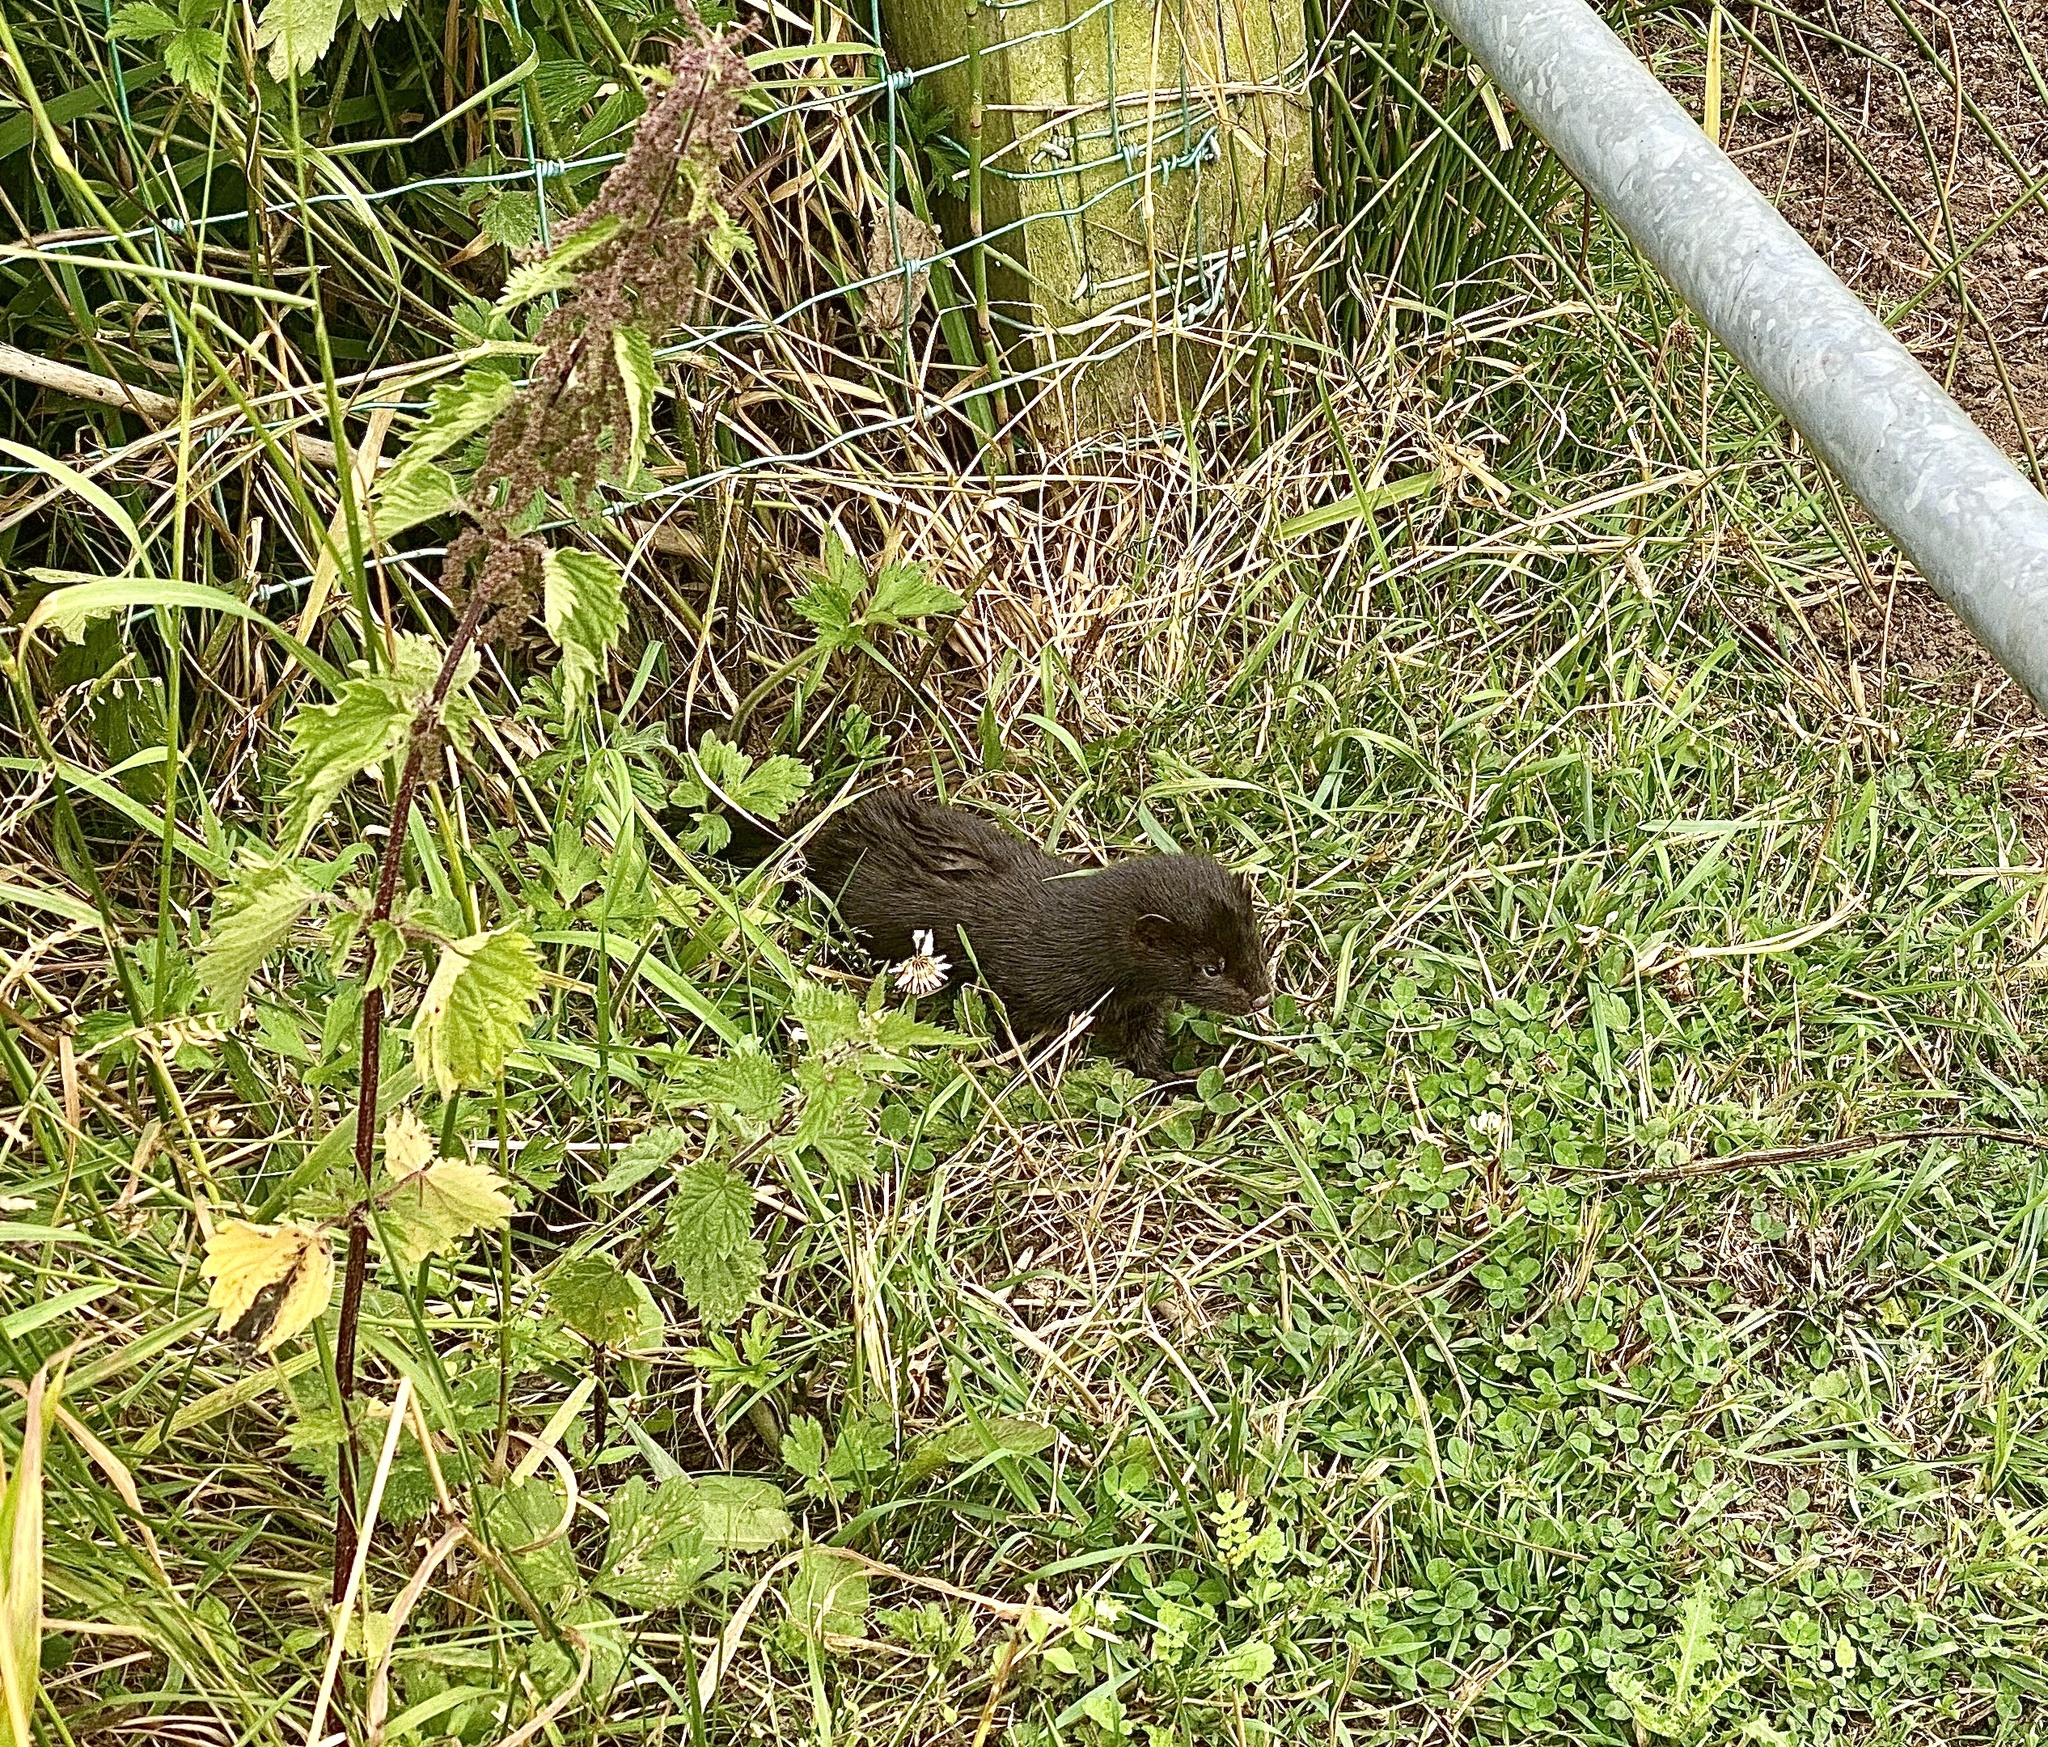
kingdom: Animalia
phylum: Chordata
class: Mammalia
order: Carnivora
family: Mustelidae
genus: Mustela
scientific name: Mustela
